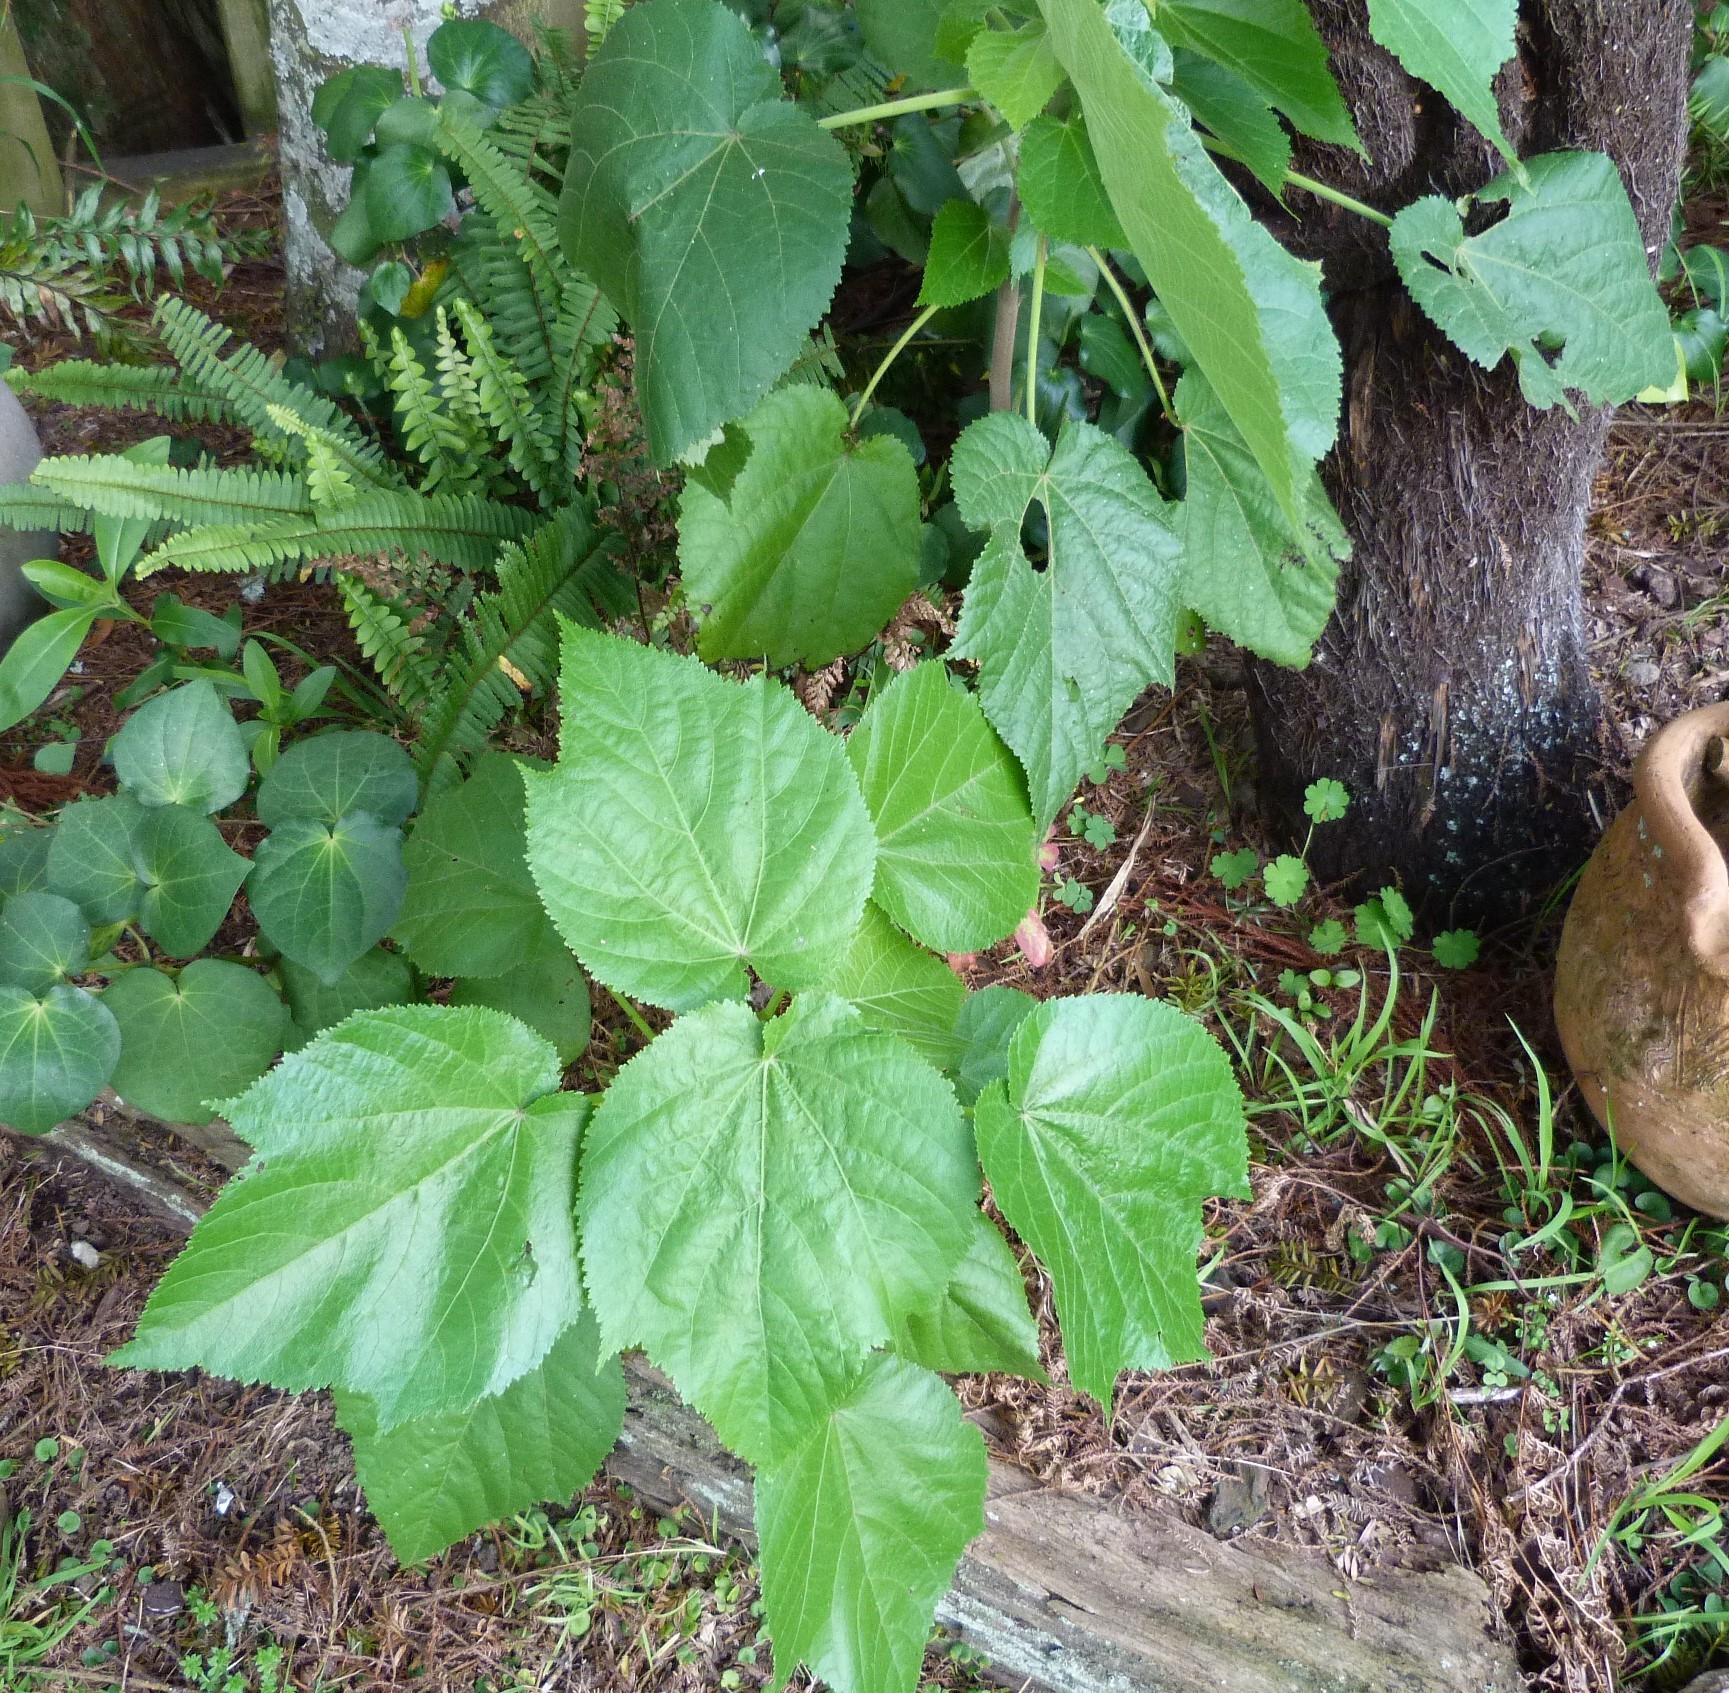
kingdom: Plantae
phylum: Tracheophyta
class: Magnoliopsida
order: Malvales
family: Malvaceae
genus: Entelea
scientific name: Entelea arborescens
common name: New zealand-mulberry
